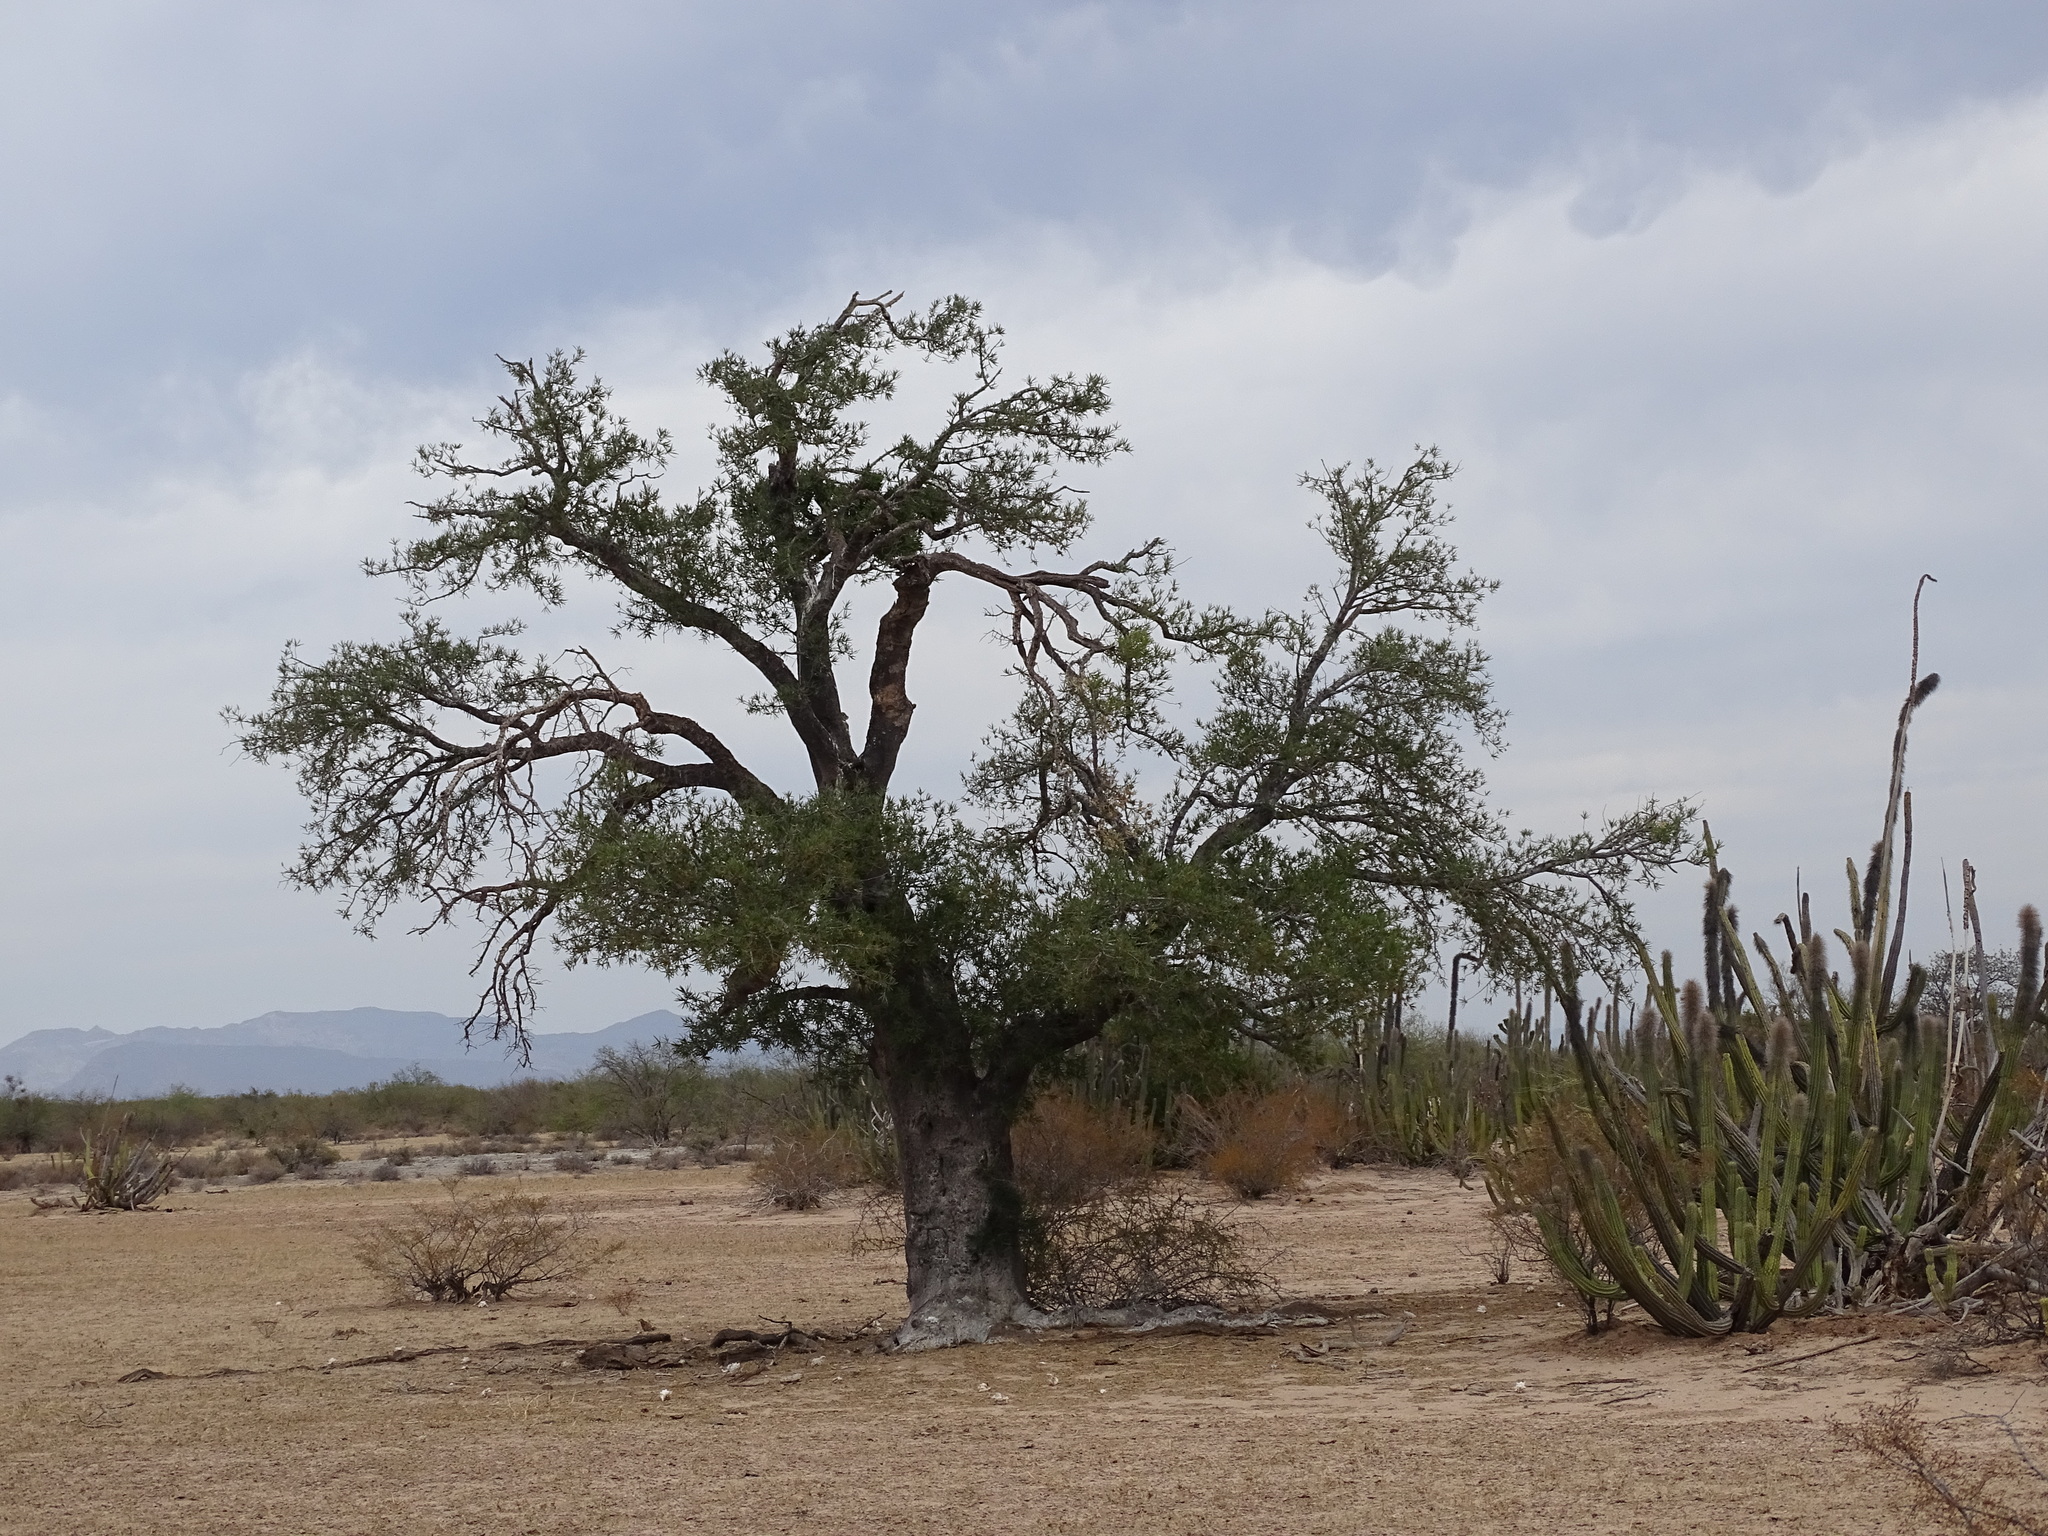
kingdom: Plantae
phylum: Tracheophyta
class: Magnoliopsida
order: Brassicales
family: Stixaceae
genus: Forchhammeria
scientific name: Forchhammeria watsonii
